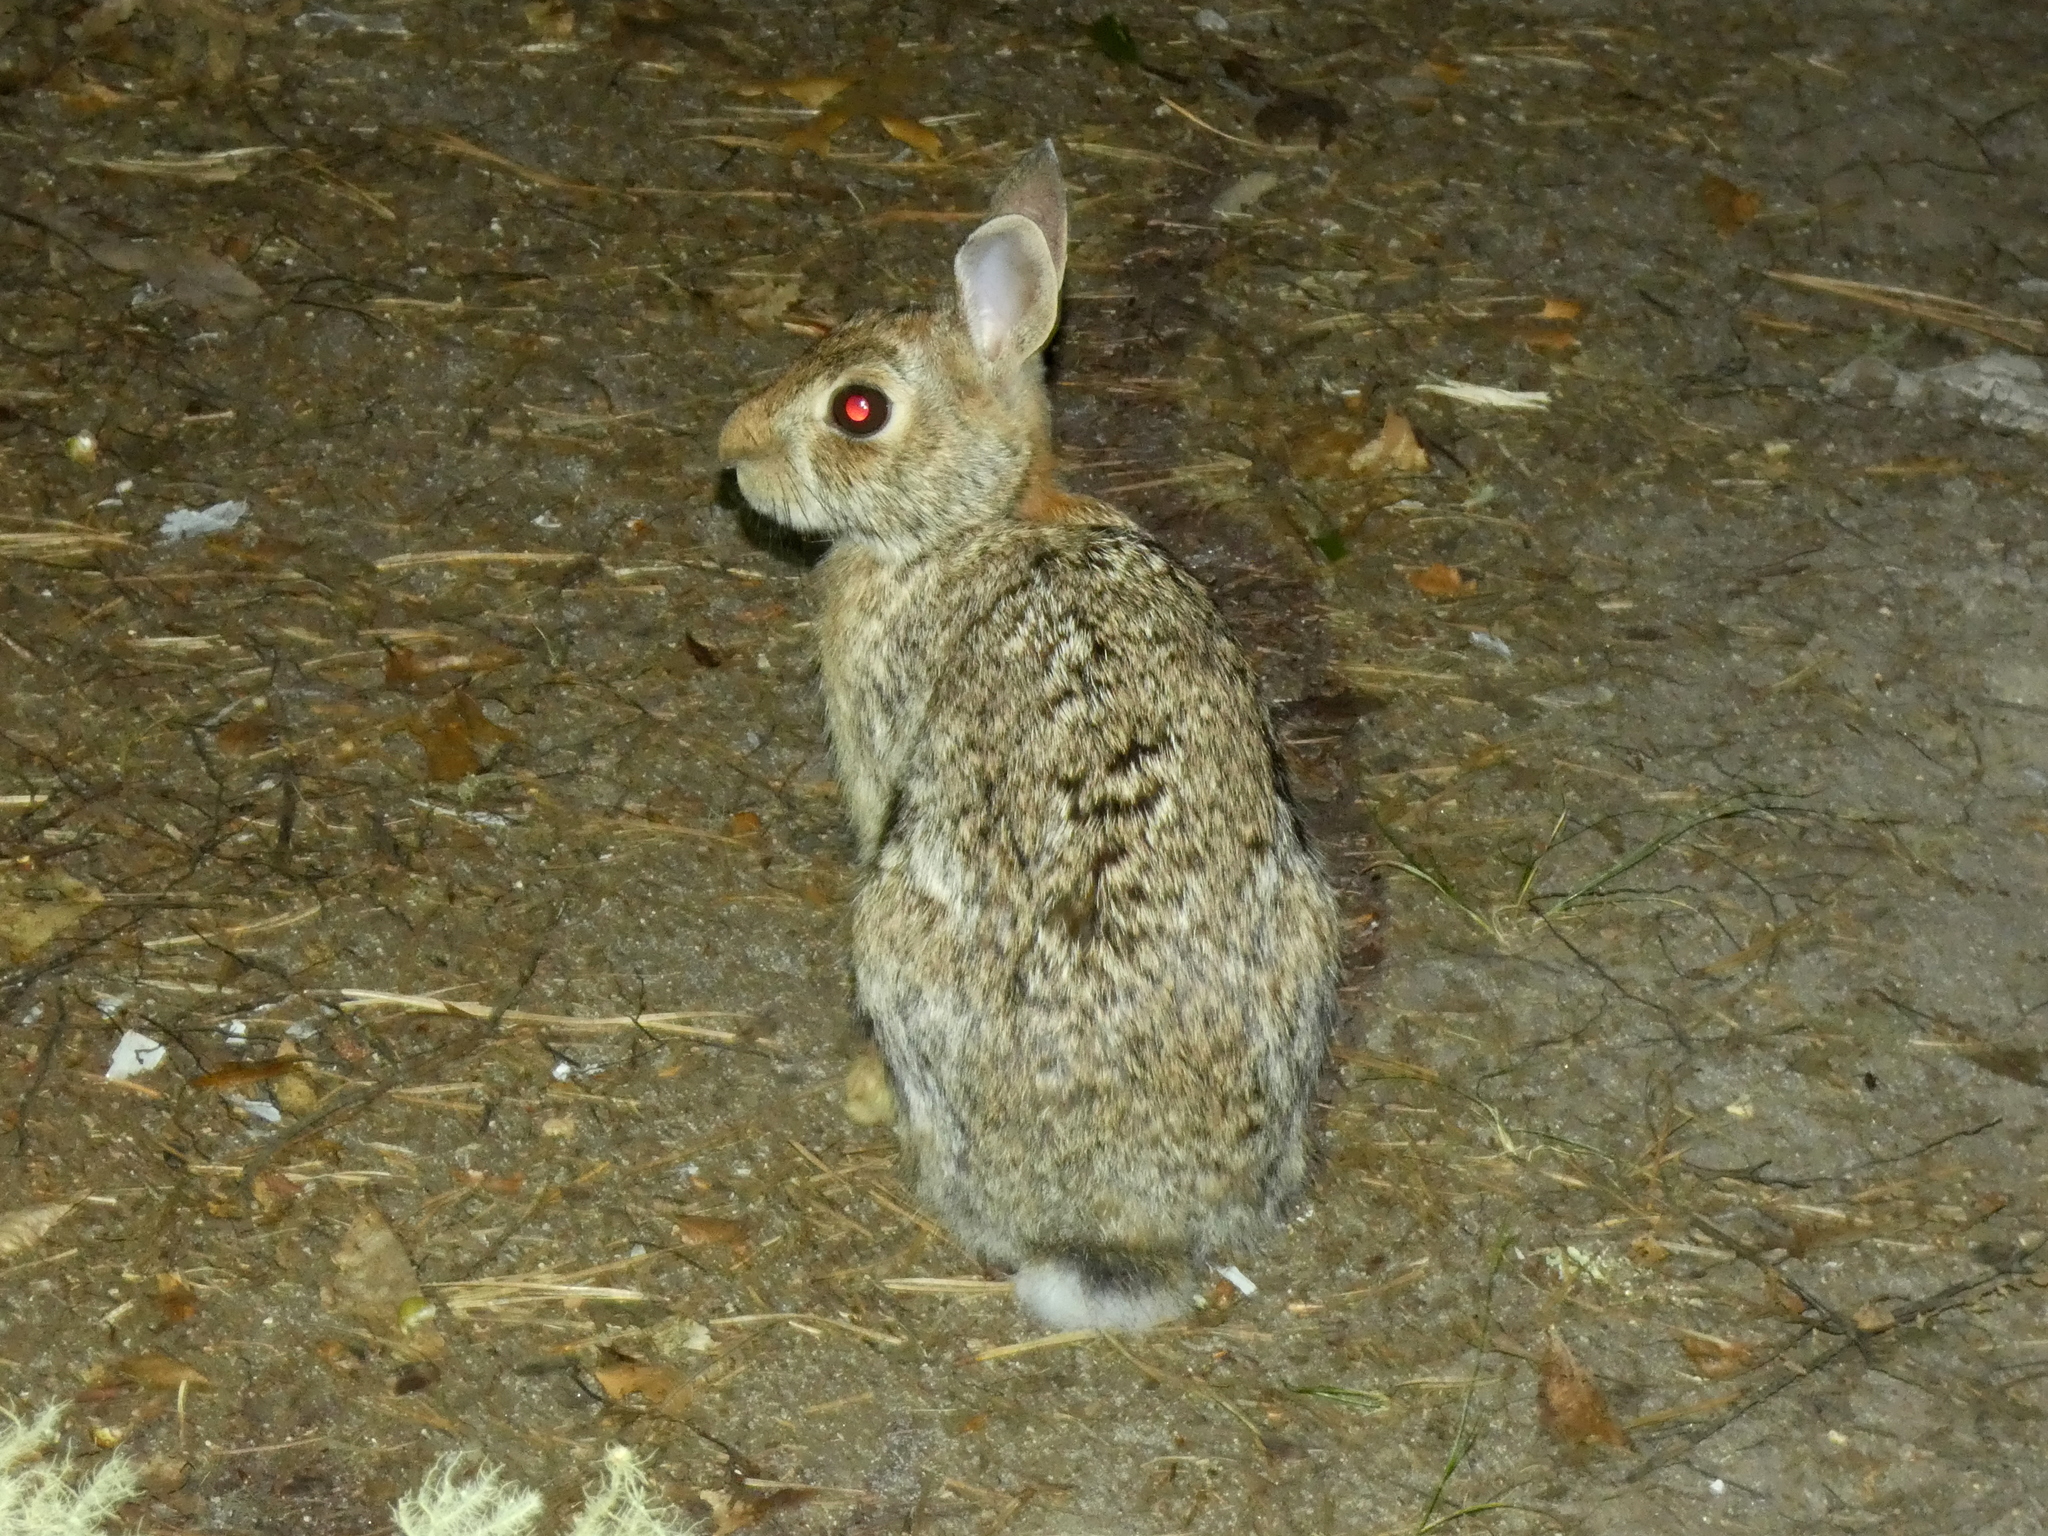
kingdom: Animalia
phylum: Chordata
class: Mammalia
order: Lagomorpha
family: Leporidae
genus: Sylvilagus
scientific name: Sylvilagus floridanus
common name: Eastern cottontail
